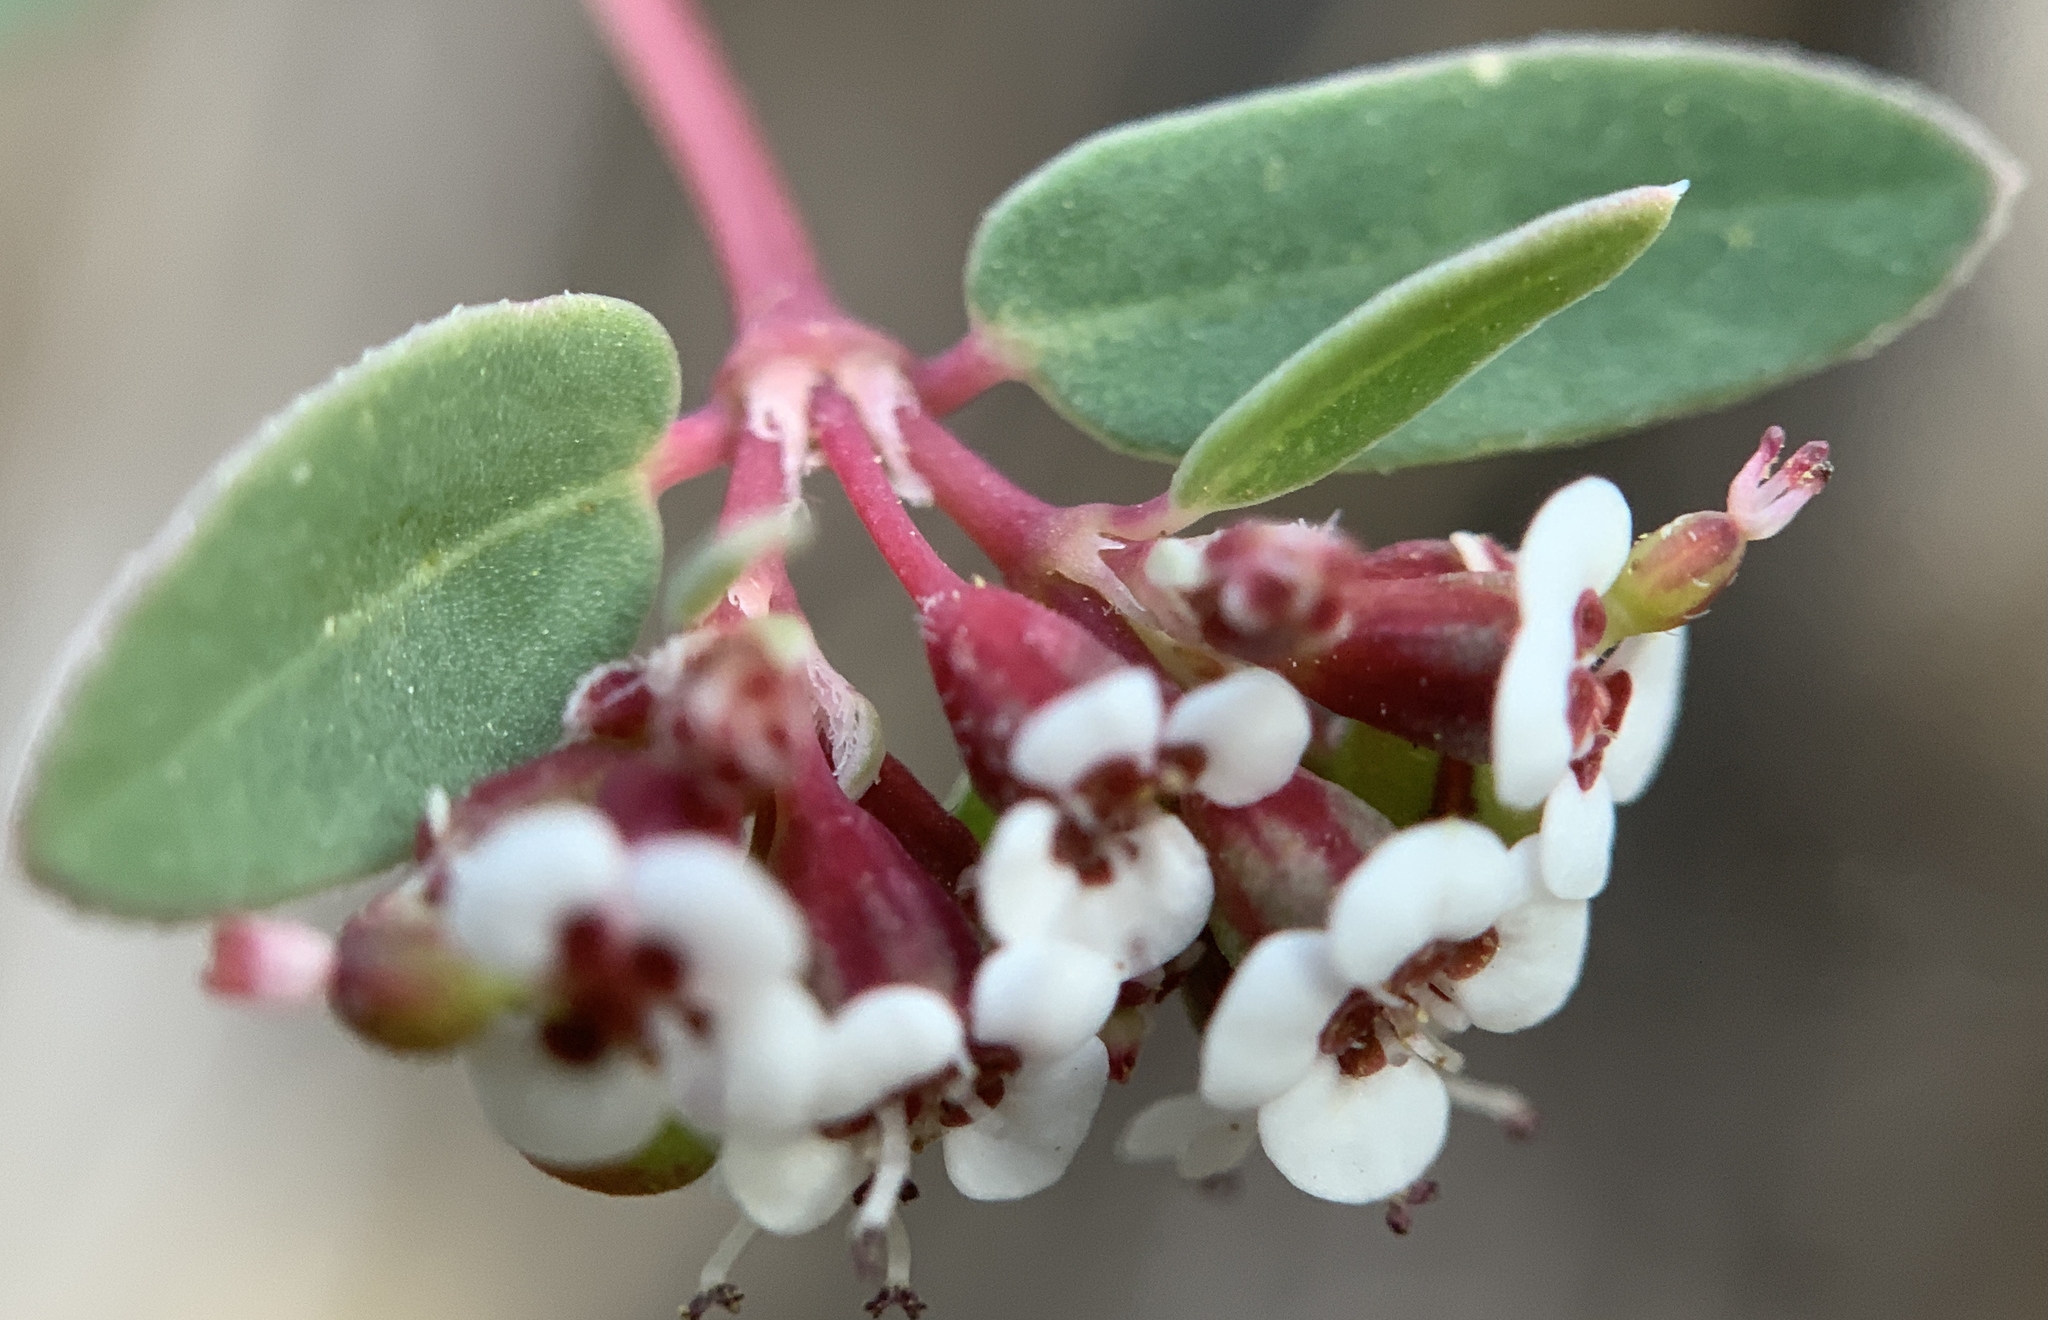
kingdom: Plantae
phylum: Tracheophyta
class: Magnoliopsida
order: Malpighiales
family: Euphorbiaceae
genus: Euphorbia
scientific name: Euphorbia capitellata
